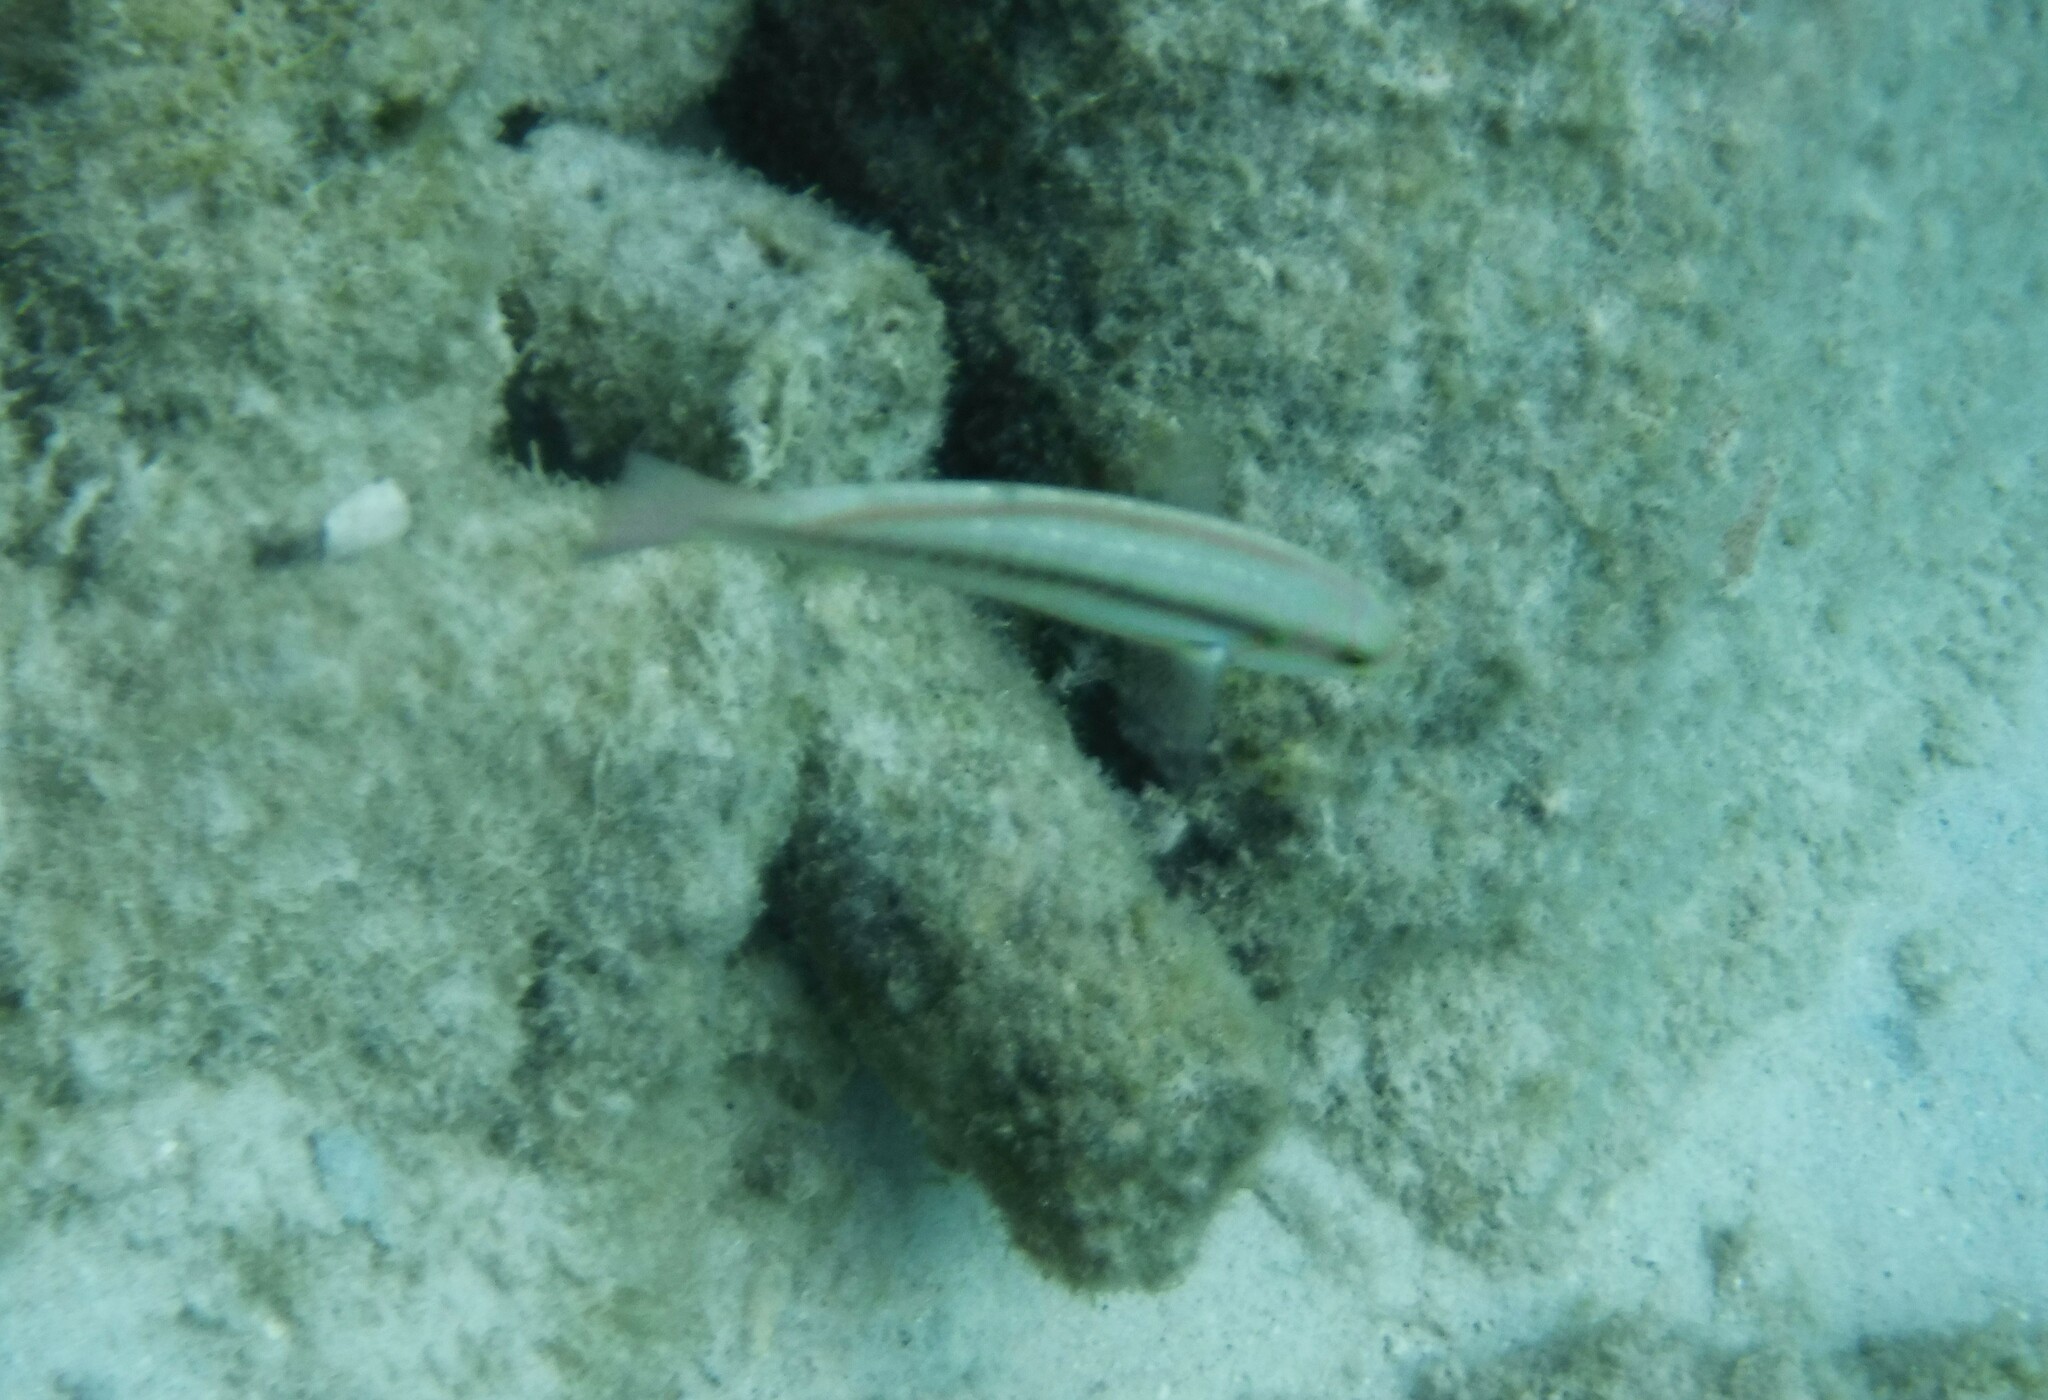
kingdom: Animalia
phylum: Chordata
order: Perciformes
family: Labridae
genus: Halichoeres
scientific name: Halichoeres bivittatus
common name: Slippery dick
